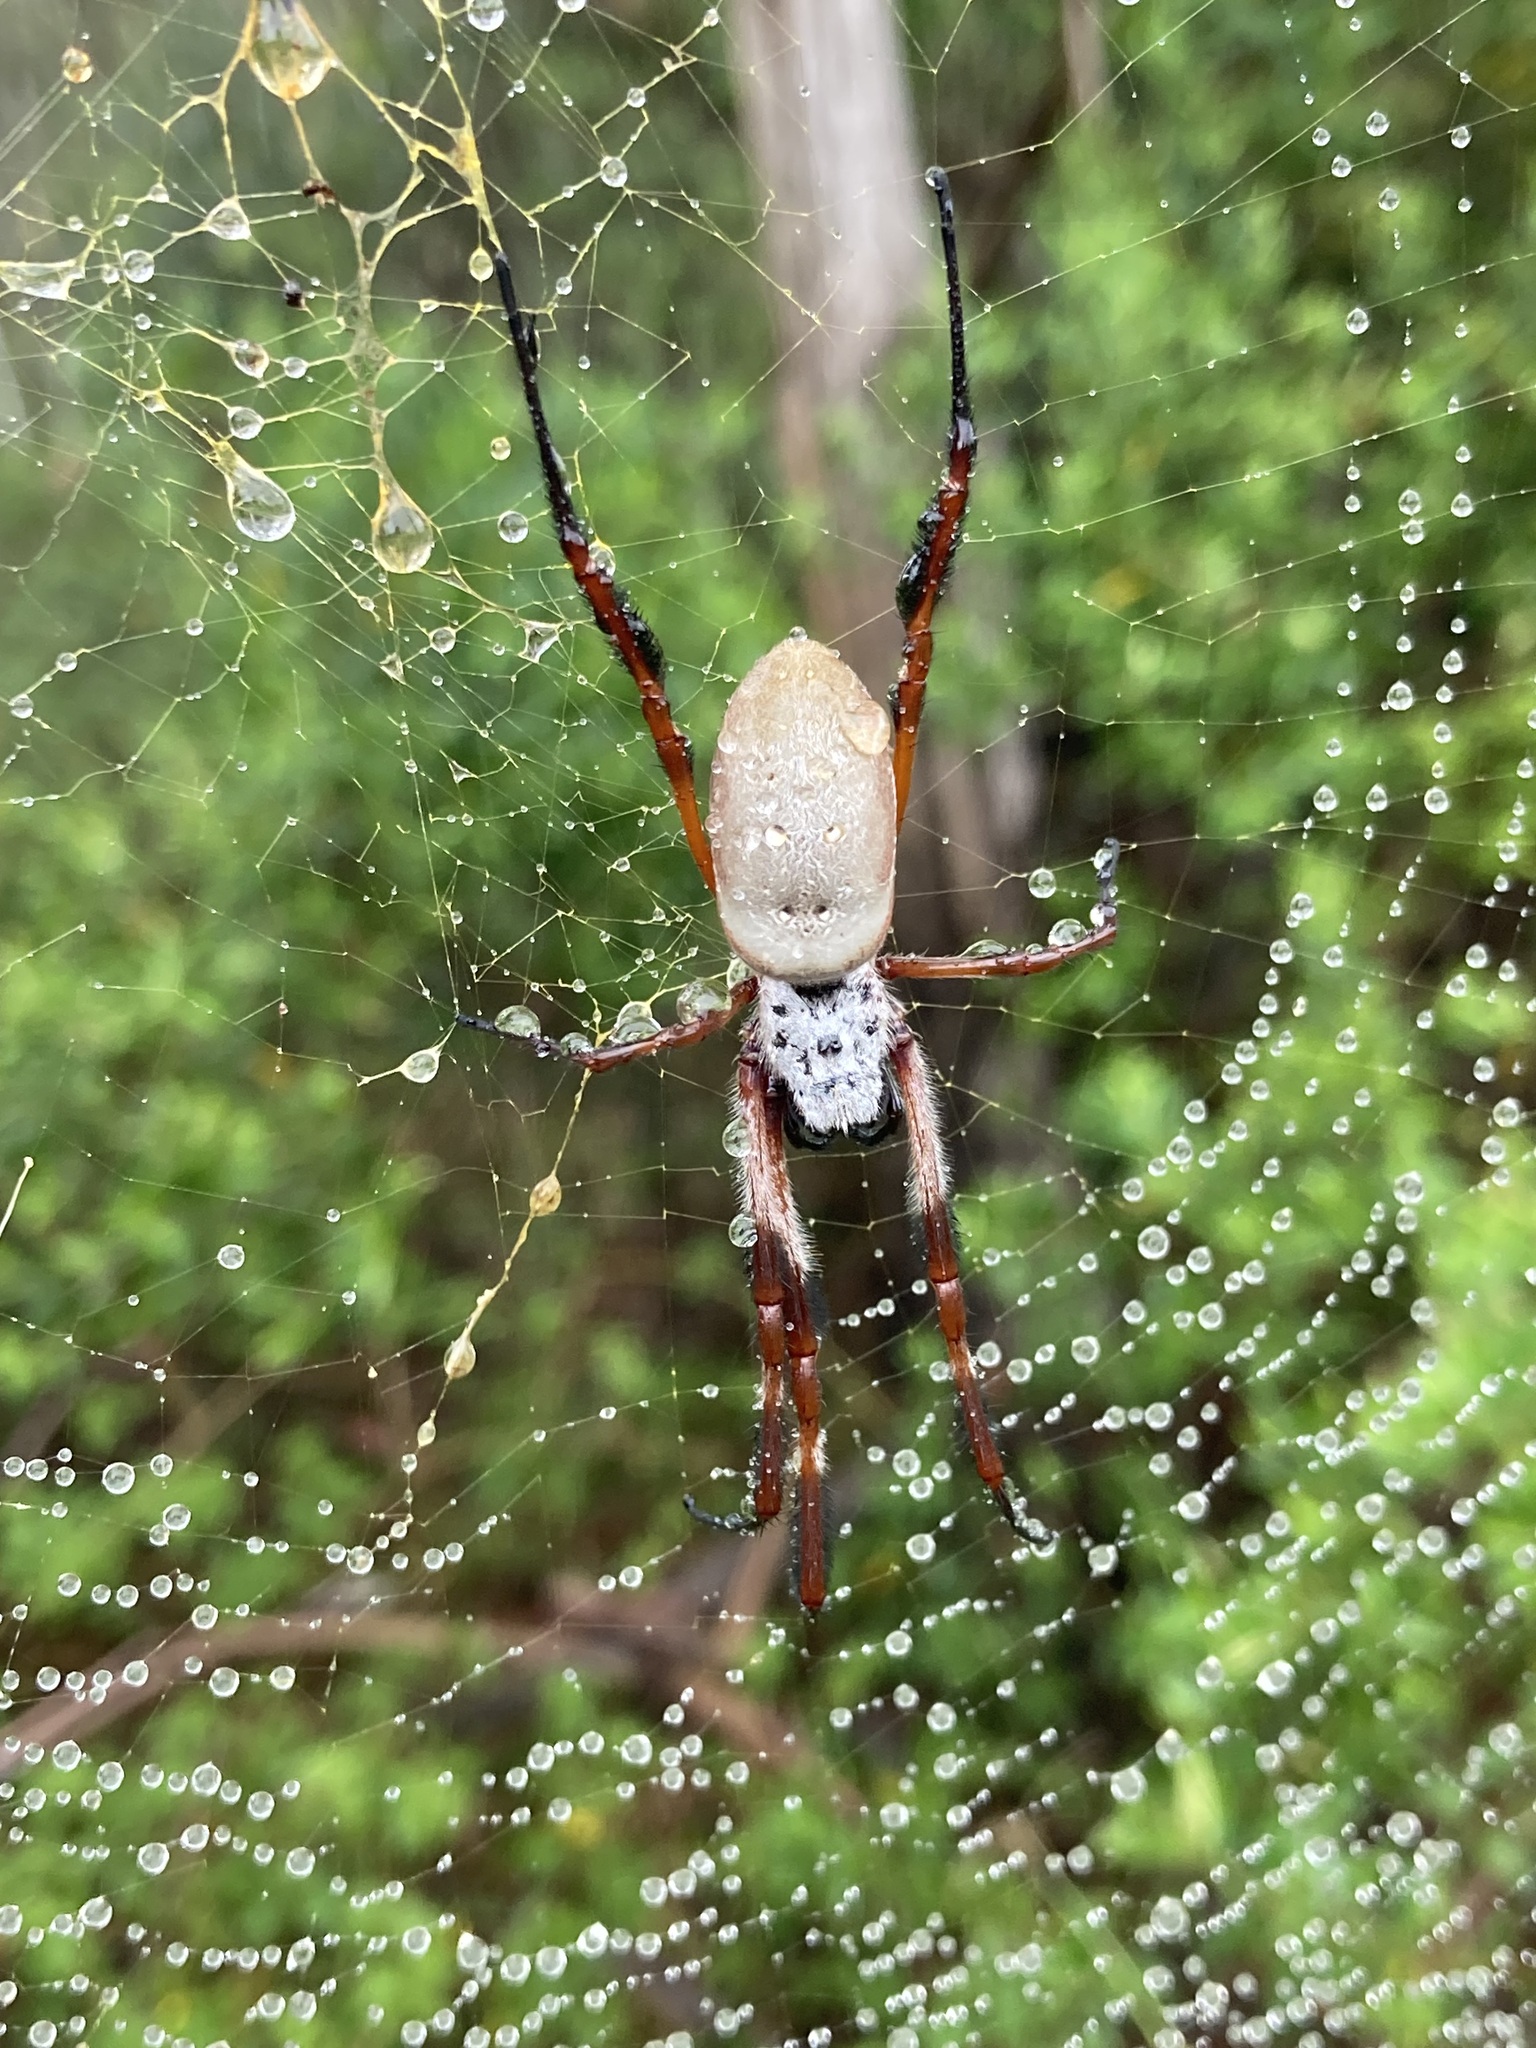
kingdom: Animalia
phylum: Arthropoda
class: Arachnida
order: Araneae
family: Araneidae
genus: Trichonephila
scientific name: Trichonephila edulis
